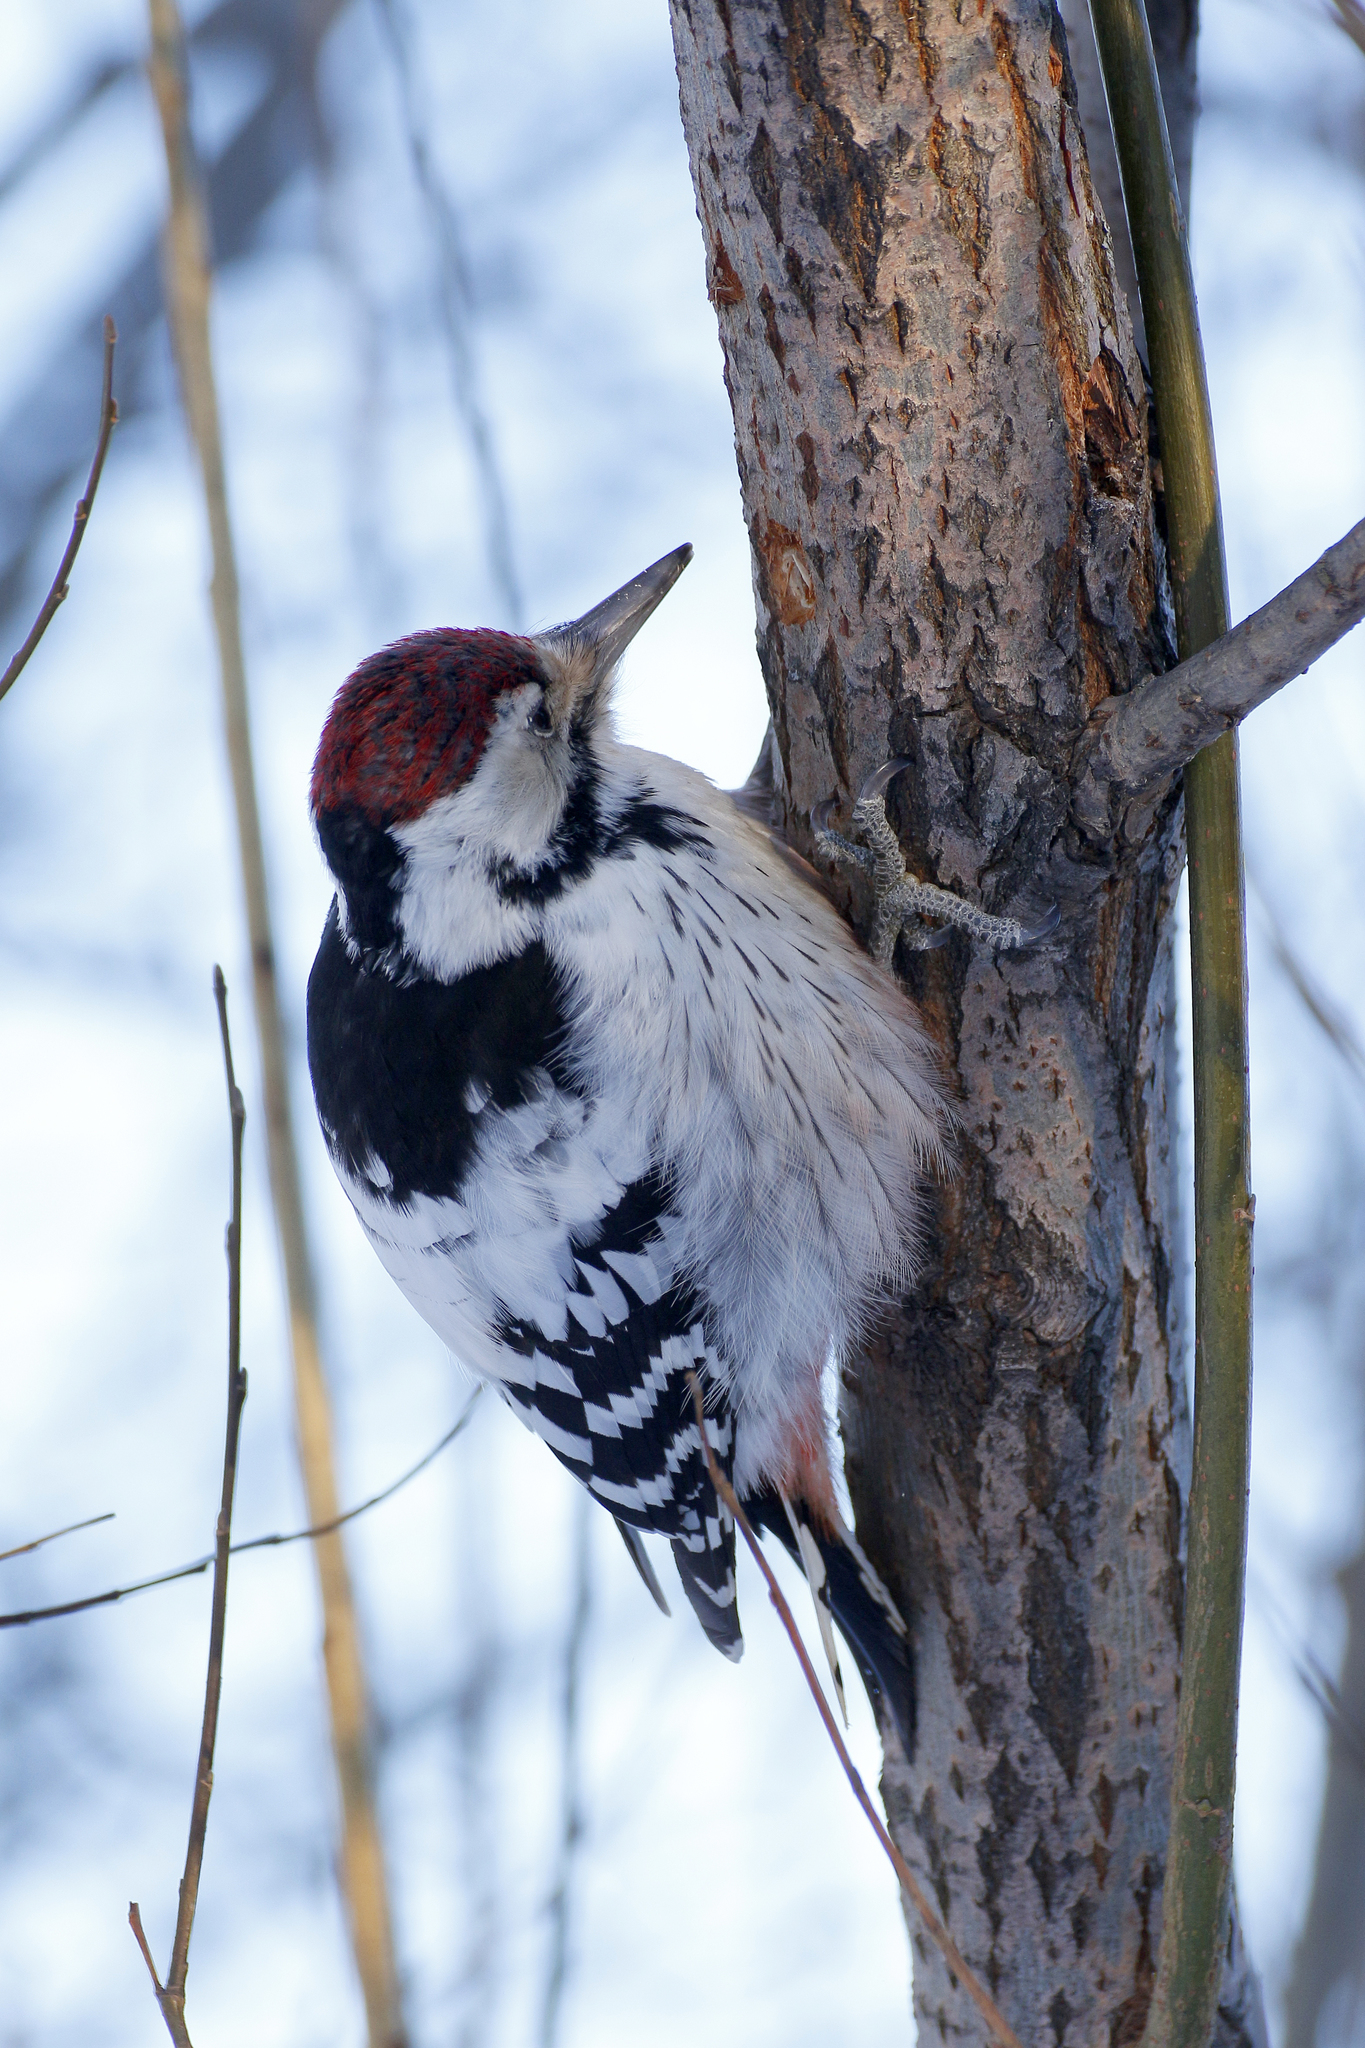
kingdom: Animalia
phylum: Chordata
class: Aves
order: Piciformes
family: Picidae
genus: Dendrocopos
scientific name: Dendrocopos leucotos
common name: White-backed woodpecker
